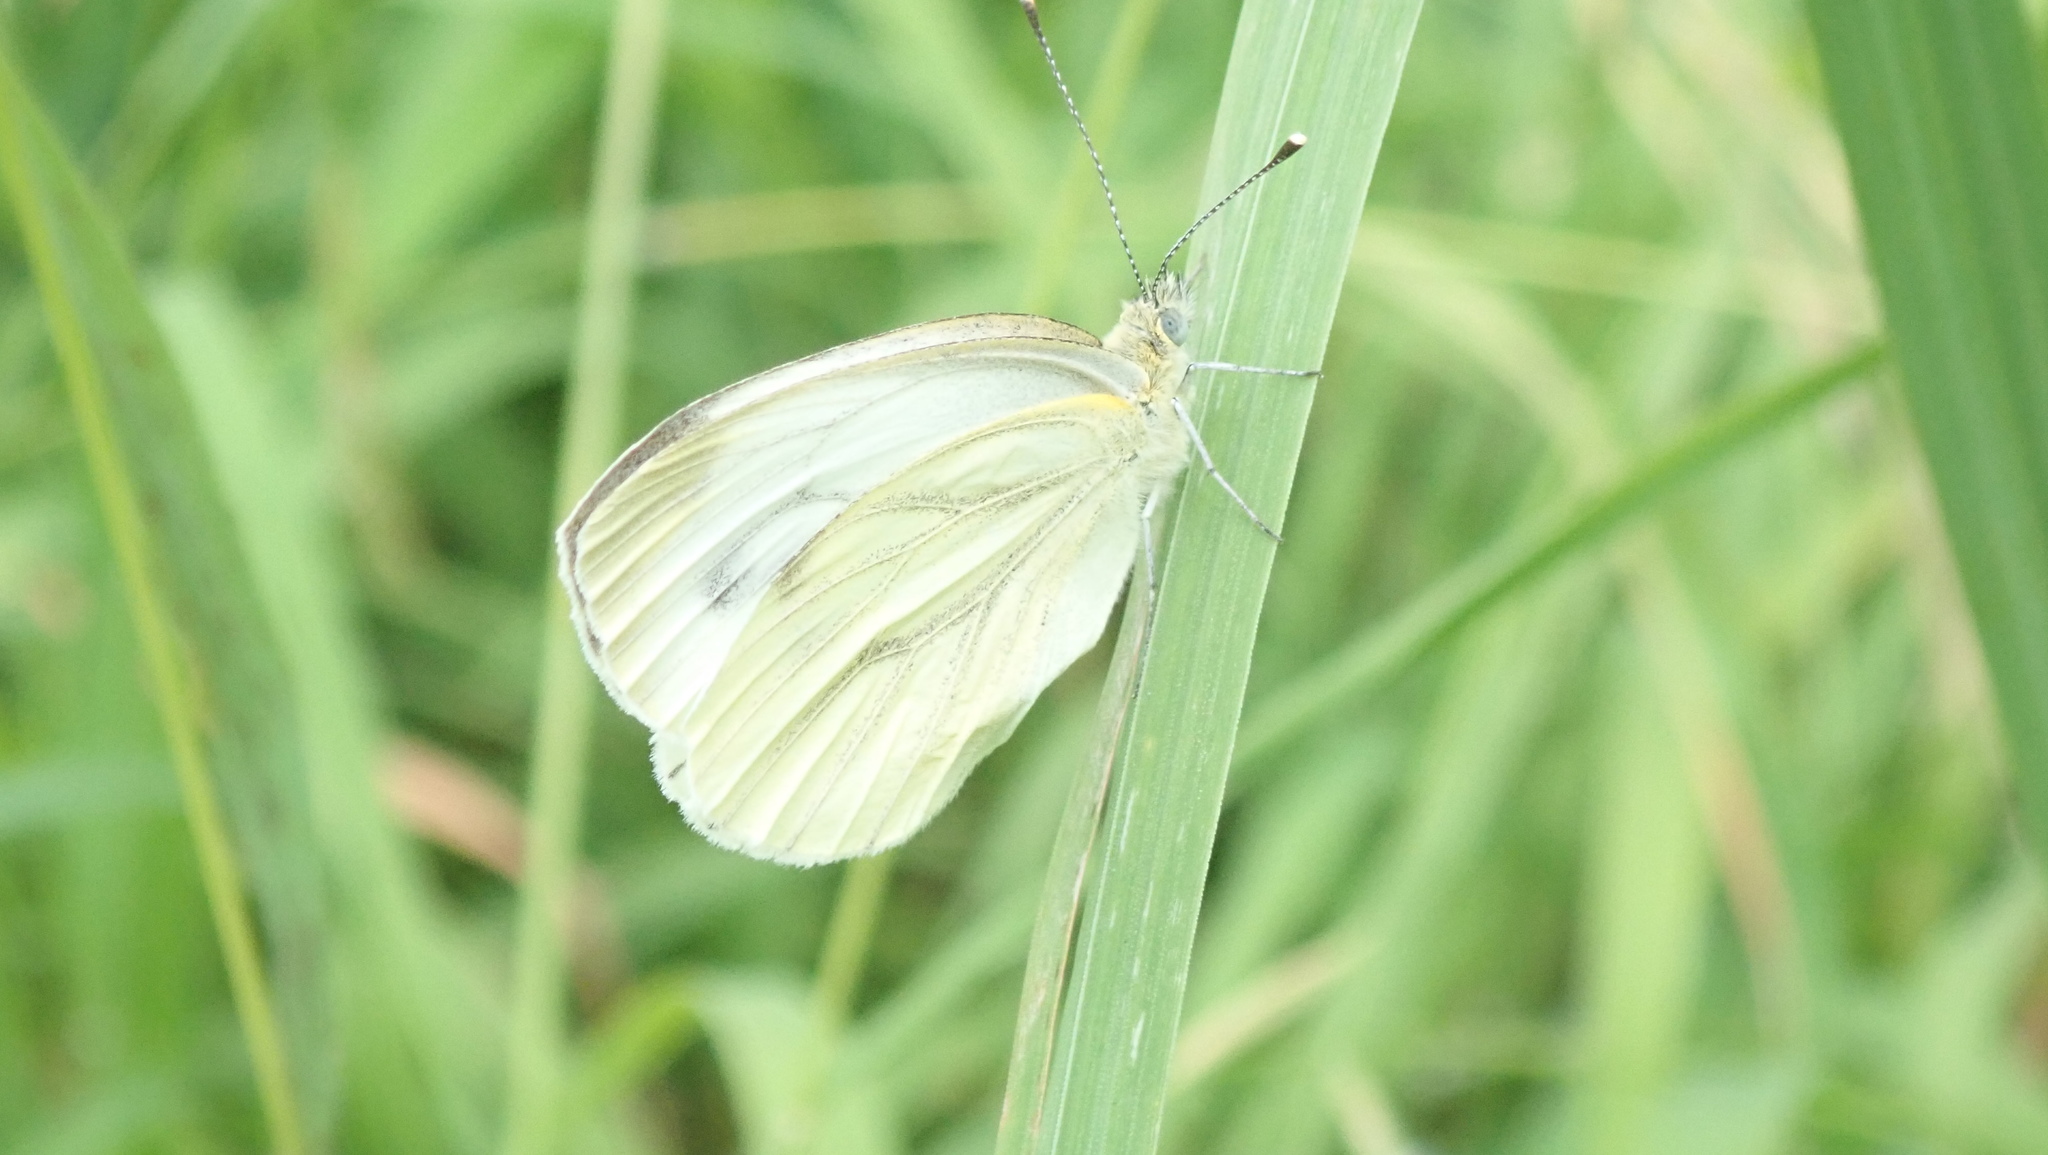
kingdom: Animalia
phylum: Arthropoda
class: Insecta
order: Lepidoptera
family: Pieridae
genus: Pieris
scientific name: Pieris napi
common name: Green-veined white
